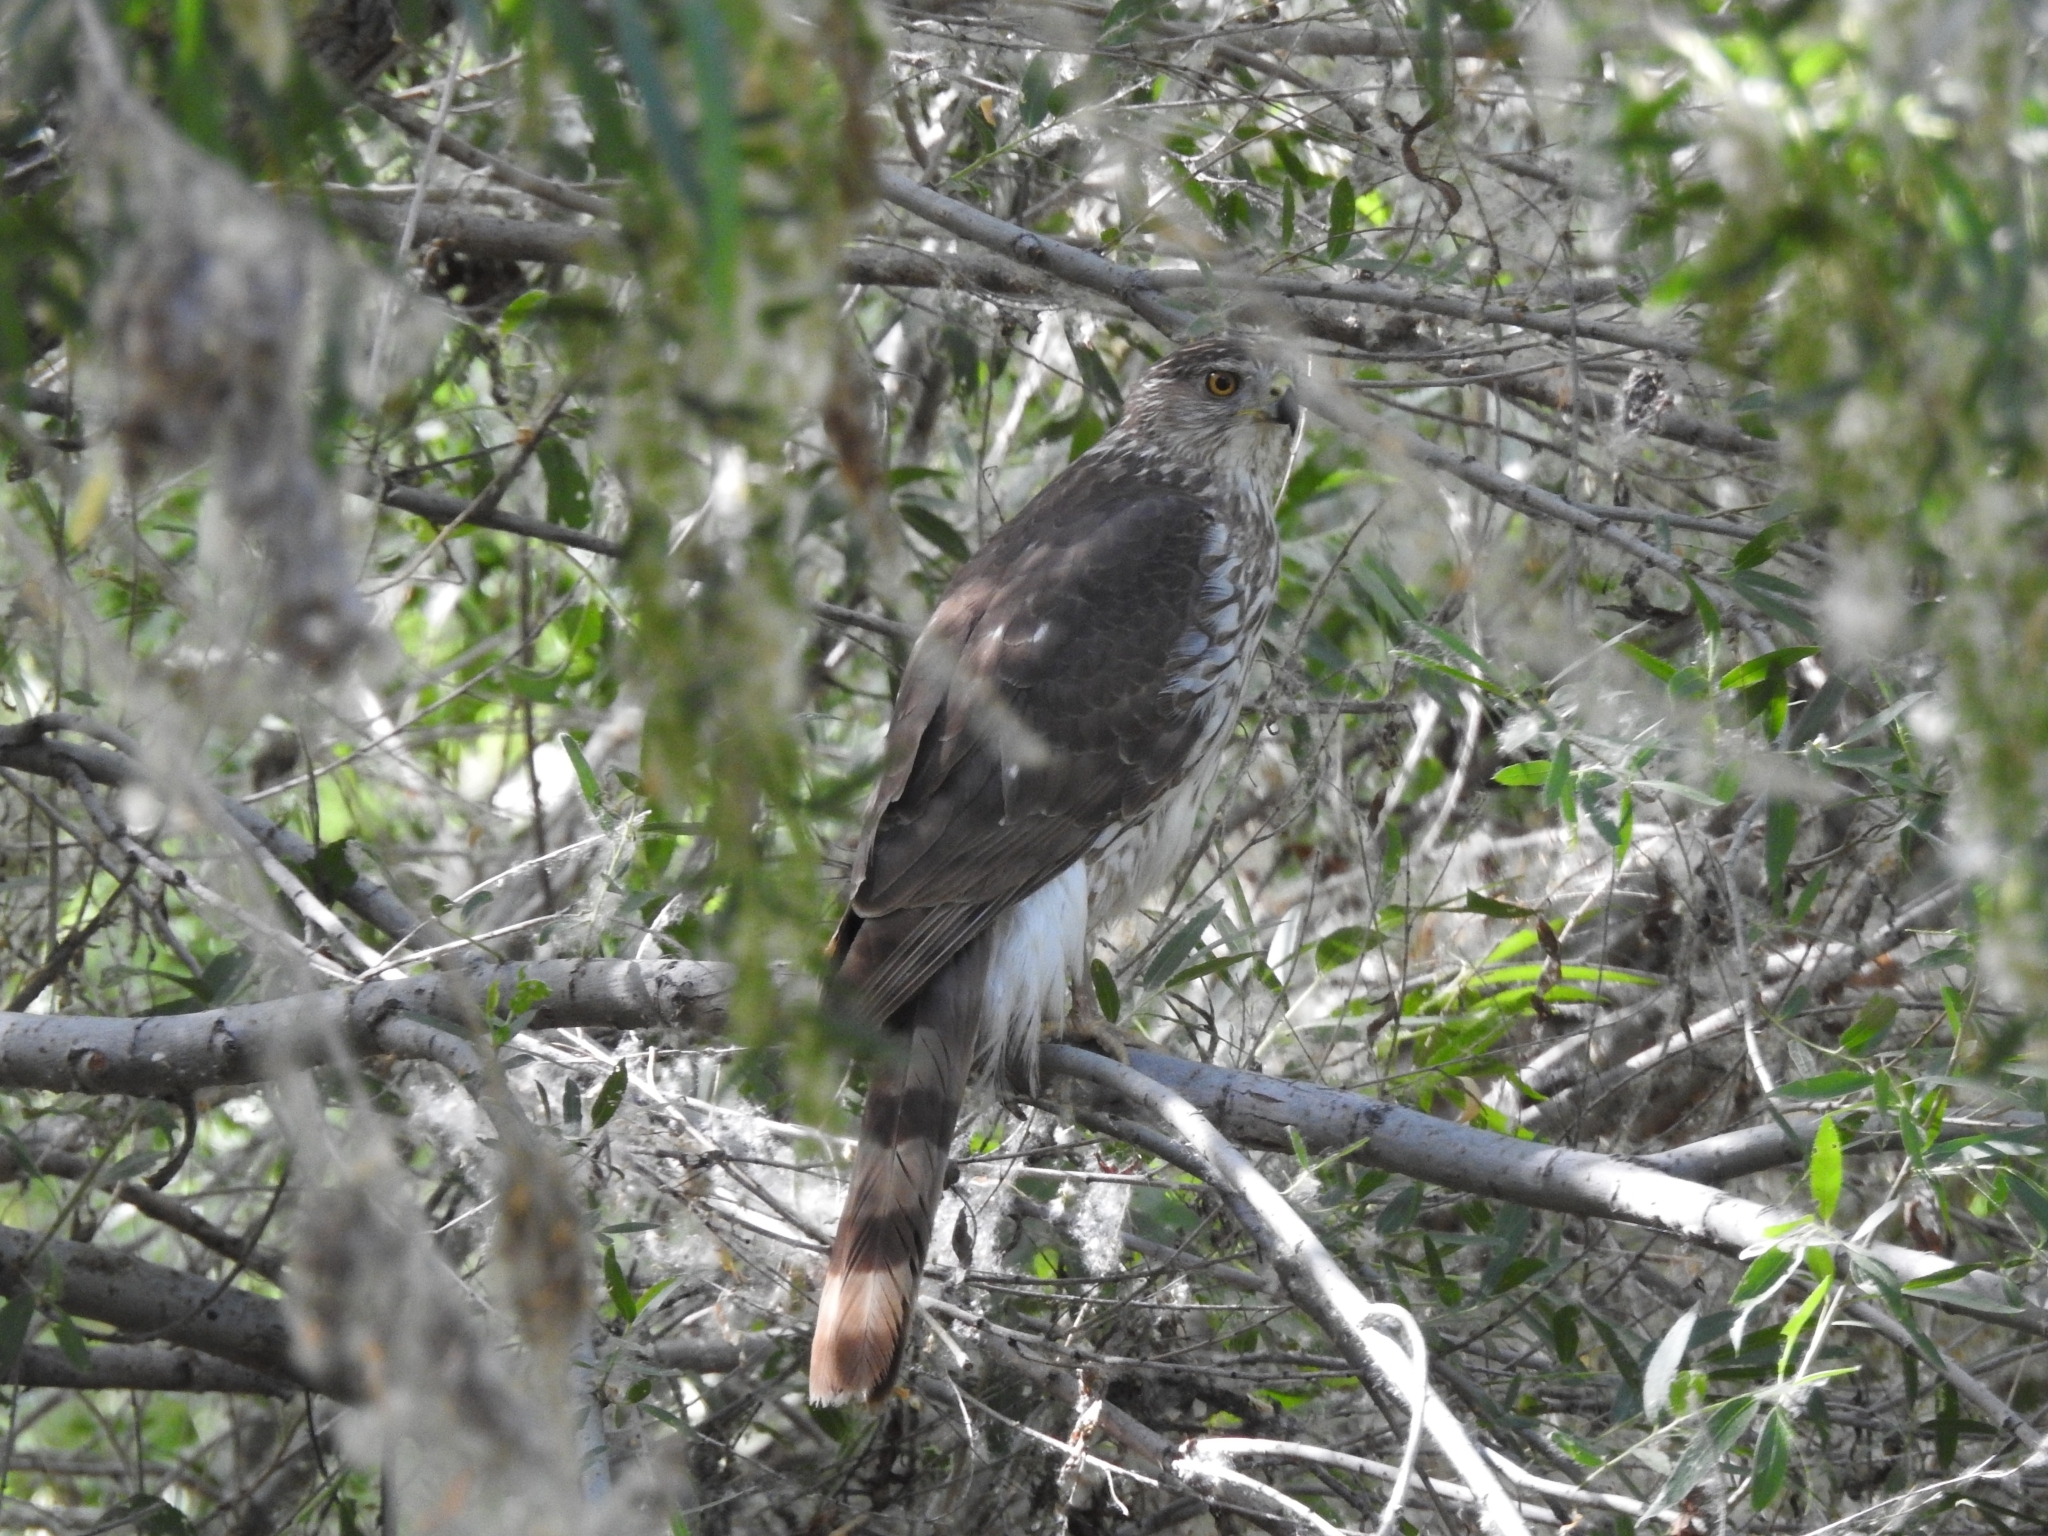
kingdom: Animalia
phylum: Chordata
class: Aves
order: Accipitriformes
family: Accipitridae
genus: Accipiter
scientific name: Accipiter cooperii
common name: Cooper's hawk
